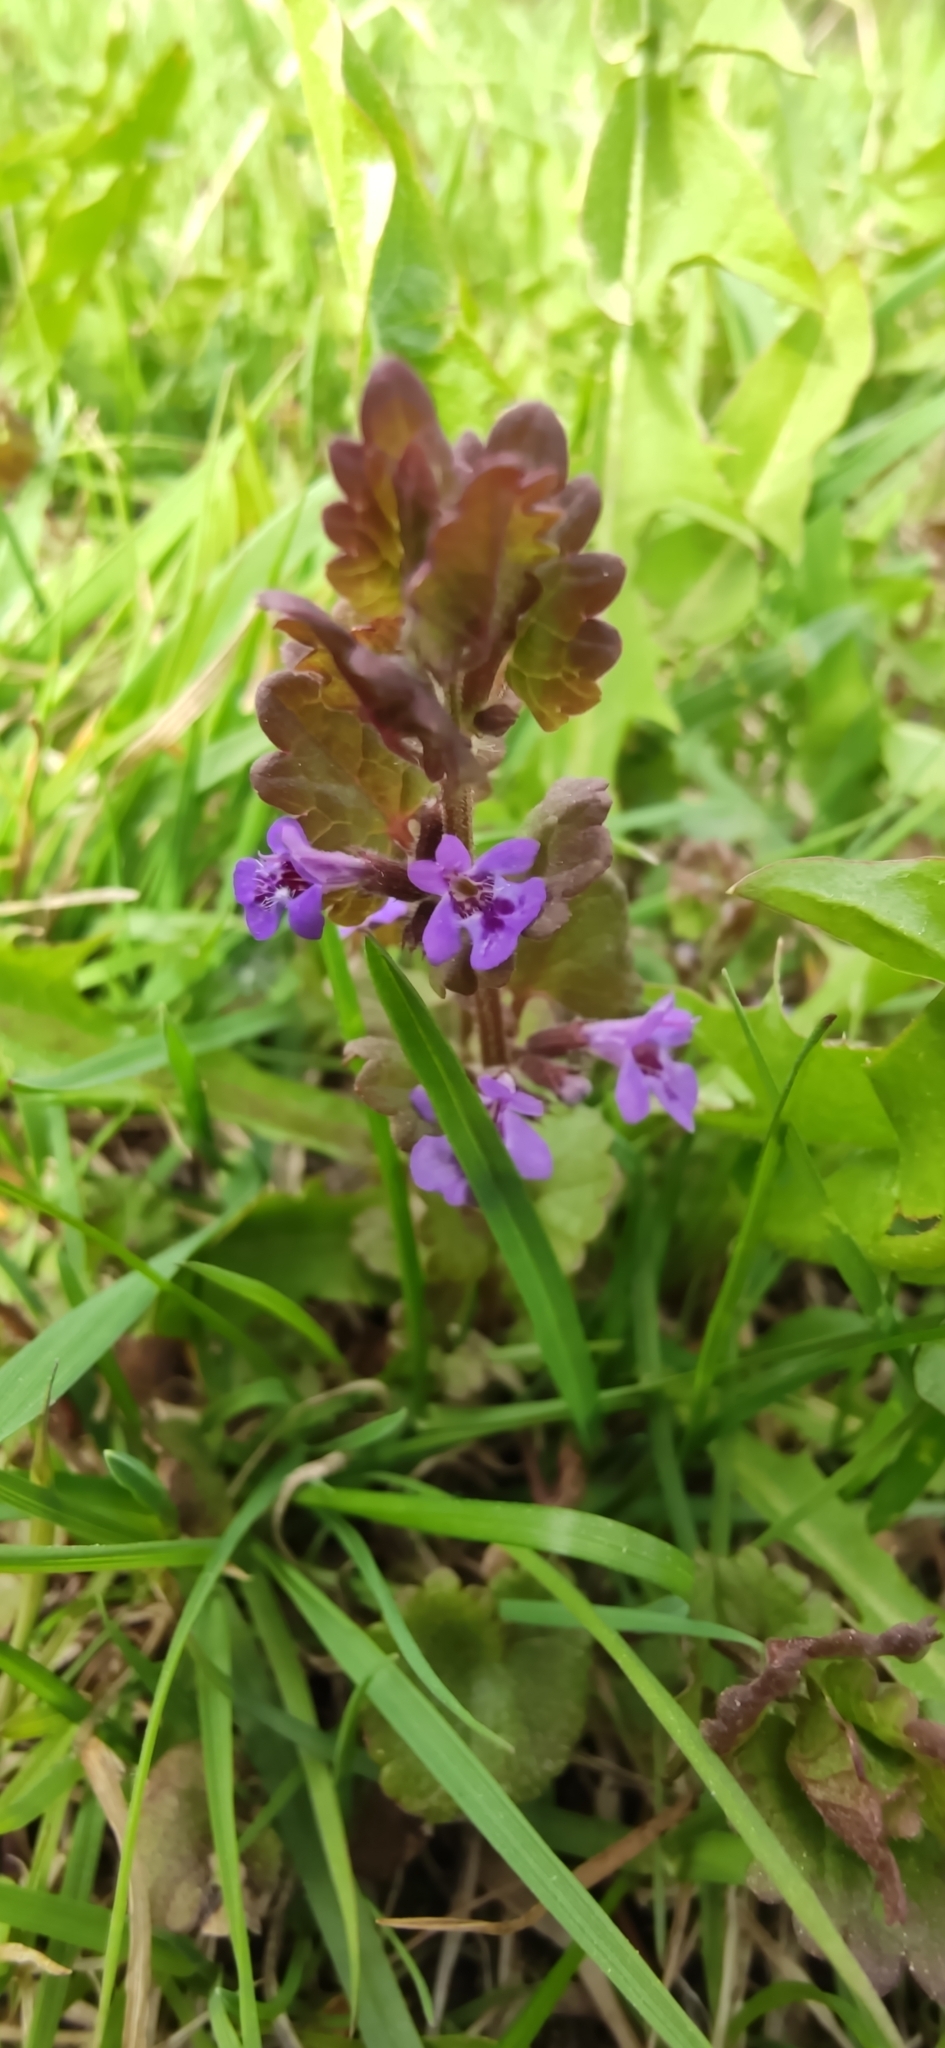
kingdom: Plantae
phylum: Tracheophyta
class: Magnoliopsida
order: Lamiales
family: Lamiaceae
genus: Glechoma
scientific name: Glechoma hederacea
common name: Ground ivy
